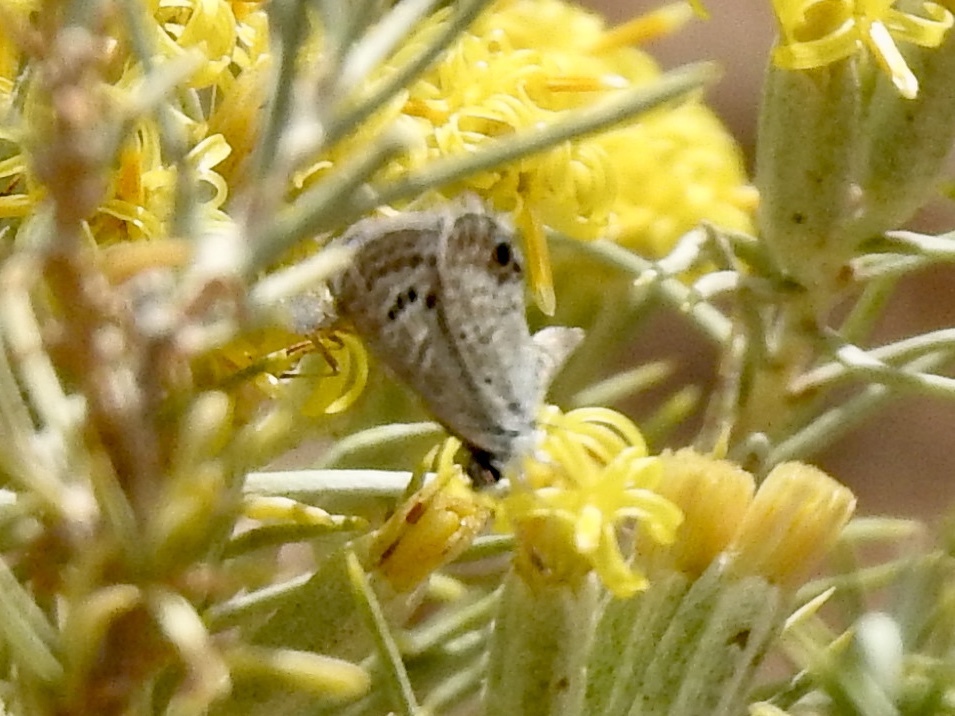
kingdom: Animalia
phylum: Arthropoda
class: Insecta
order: Lepidoptera
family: Lycaenidae
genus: Echinargus
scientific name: Echinargus isola
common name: Reakirt's blue
